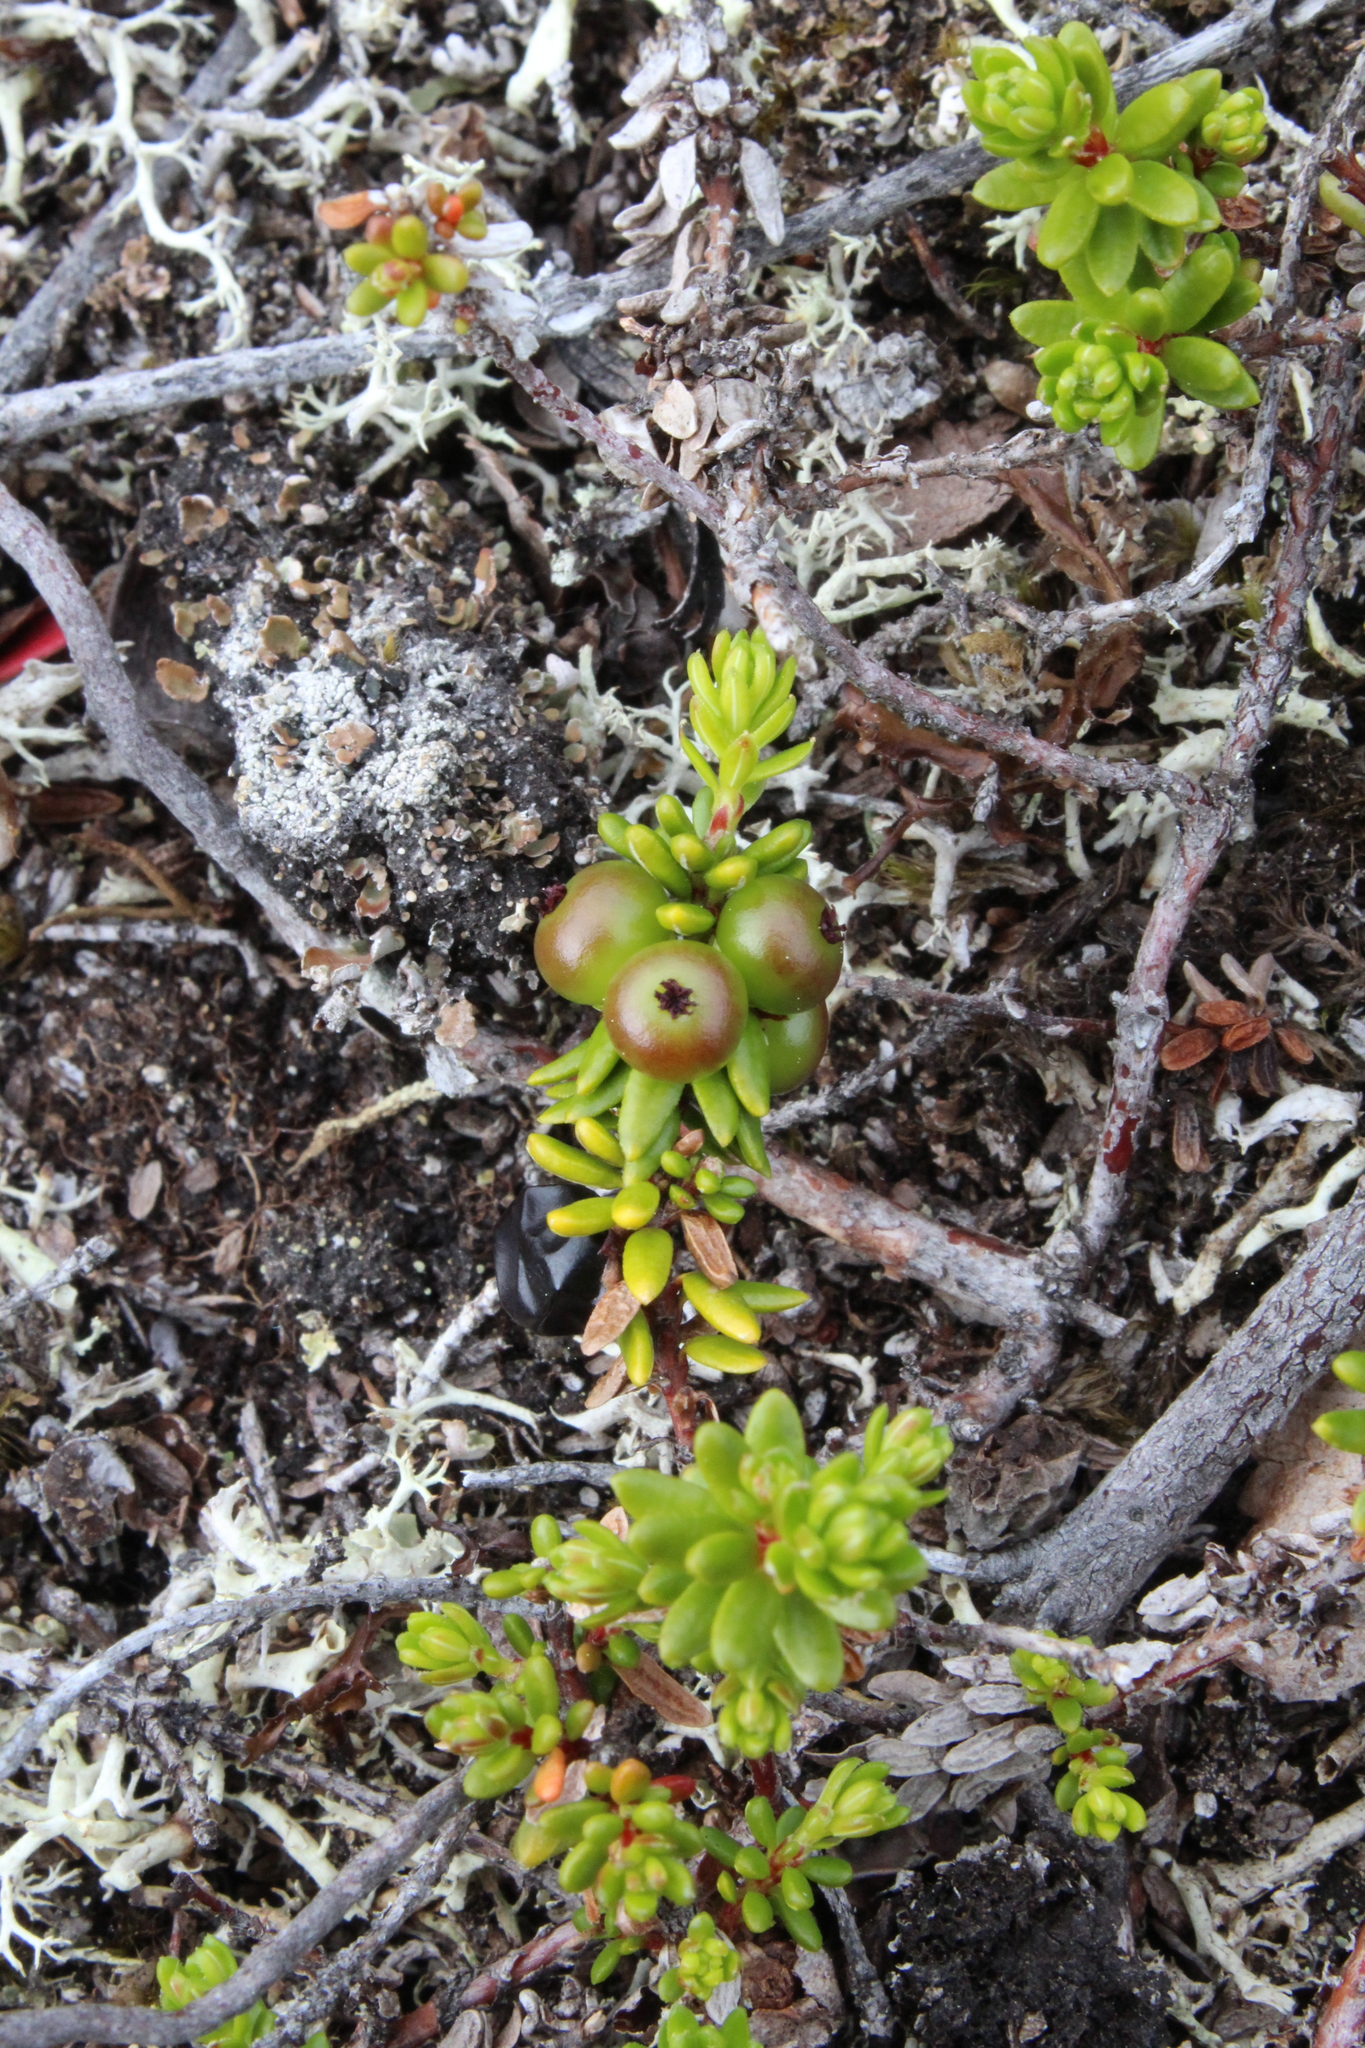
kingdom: Plantae
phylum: Tracheophyta
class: Magnoliopsida
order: Ericales
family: Ericaceae
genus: Empetrum
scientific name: Empetrum hermaphroditum
